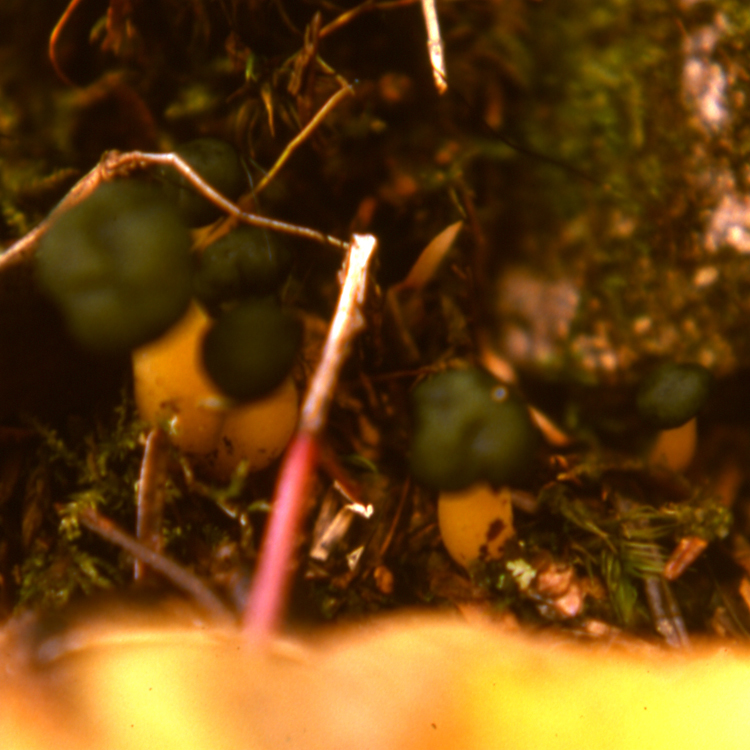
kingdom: Fungi
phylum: Ascomycota
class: Leotiomycetes
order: Leotiales
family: Leotiaceae
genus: Leotia
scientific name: Leotia lubrica
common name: Jellybaby
